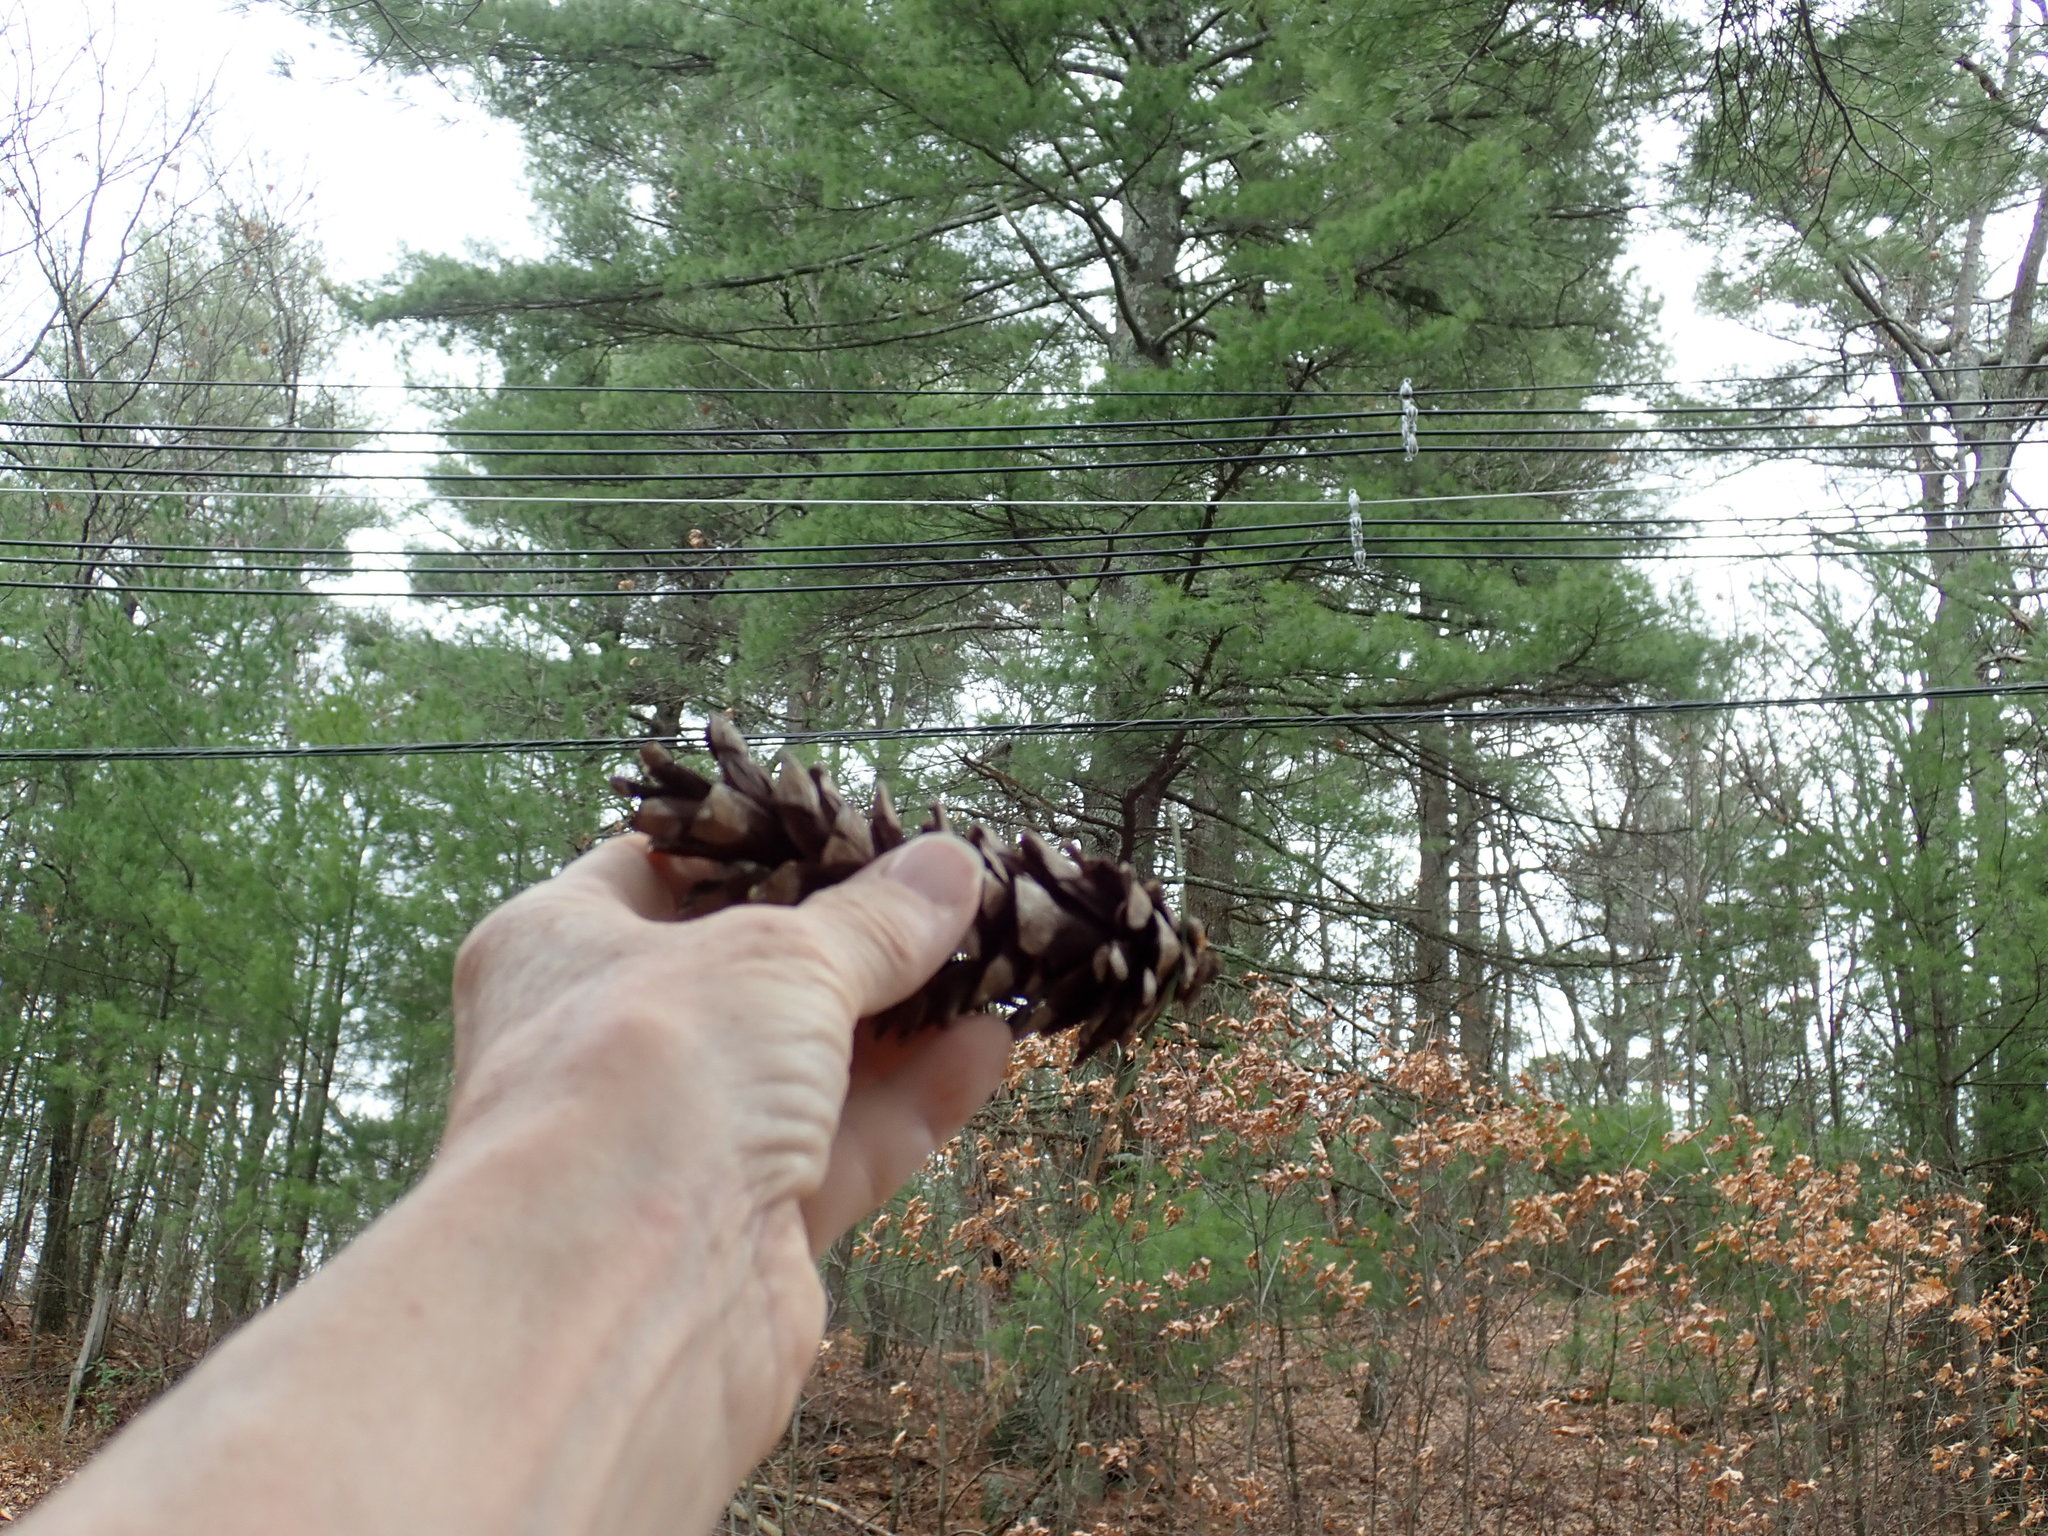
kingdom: Plantae
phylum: Tracheophyta
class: Pinopsida
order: Pinales
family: Pinaceae
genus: Pinus
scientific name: Pinus strobus
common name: Weymouth pine
